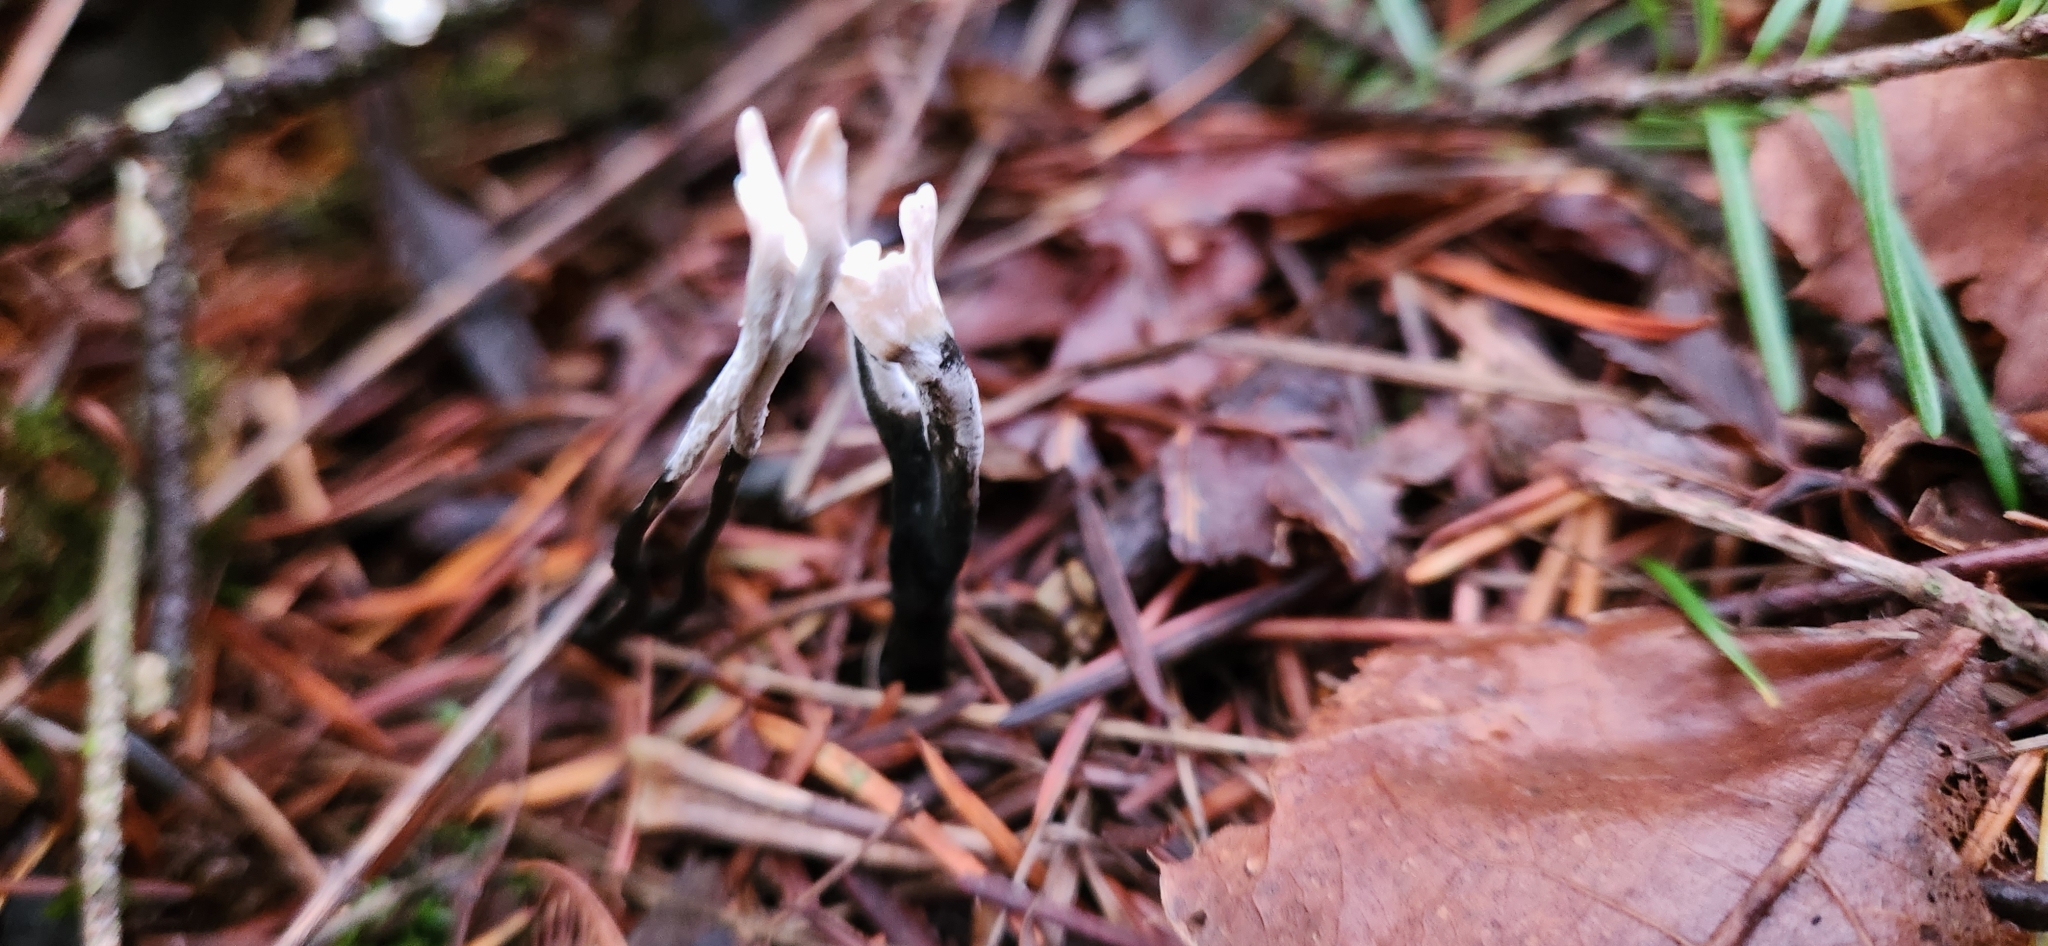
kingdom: Fungi
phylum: Ascomycota
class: Sordariomycetes
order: Xylariales
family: Xylariaceae
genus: Xylaria
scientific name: Xylaria hypoxylon
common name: Candle-snuff fungus
